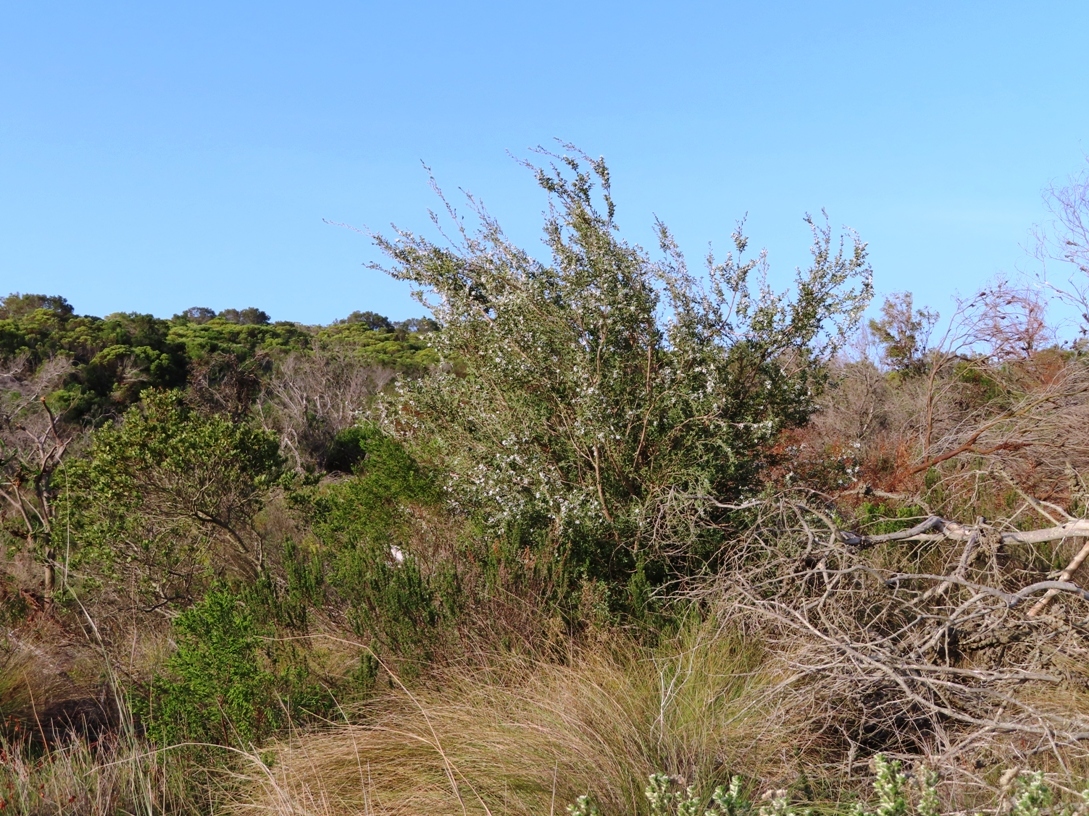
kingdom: Plantae
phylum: Tracheophyta
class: Magnoliopsida
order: Myrtales
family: Myrtaceae
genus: Leptospermum
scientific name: Leptospermum laevigatum
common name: Australian teatree
